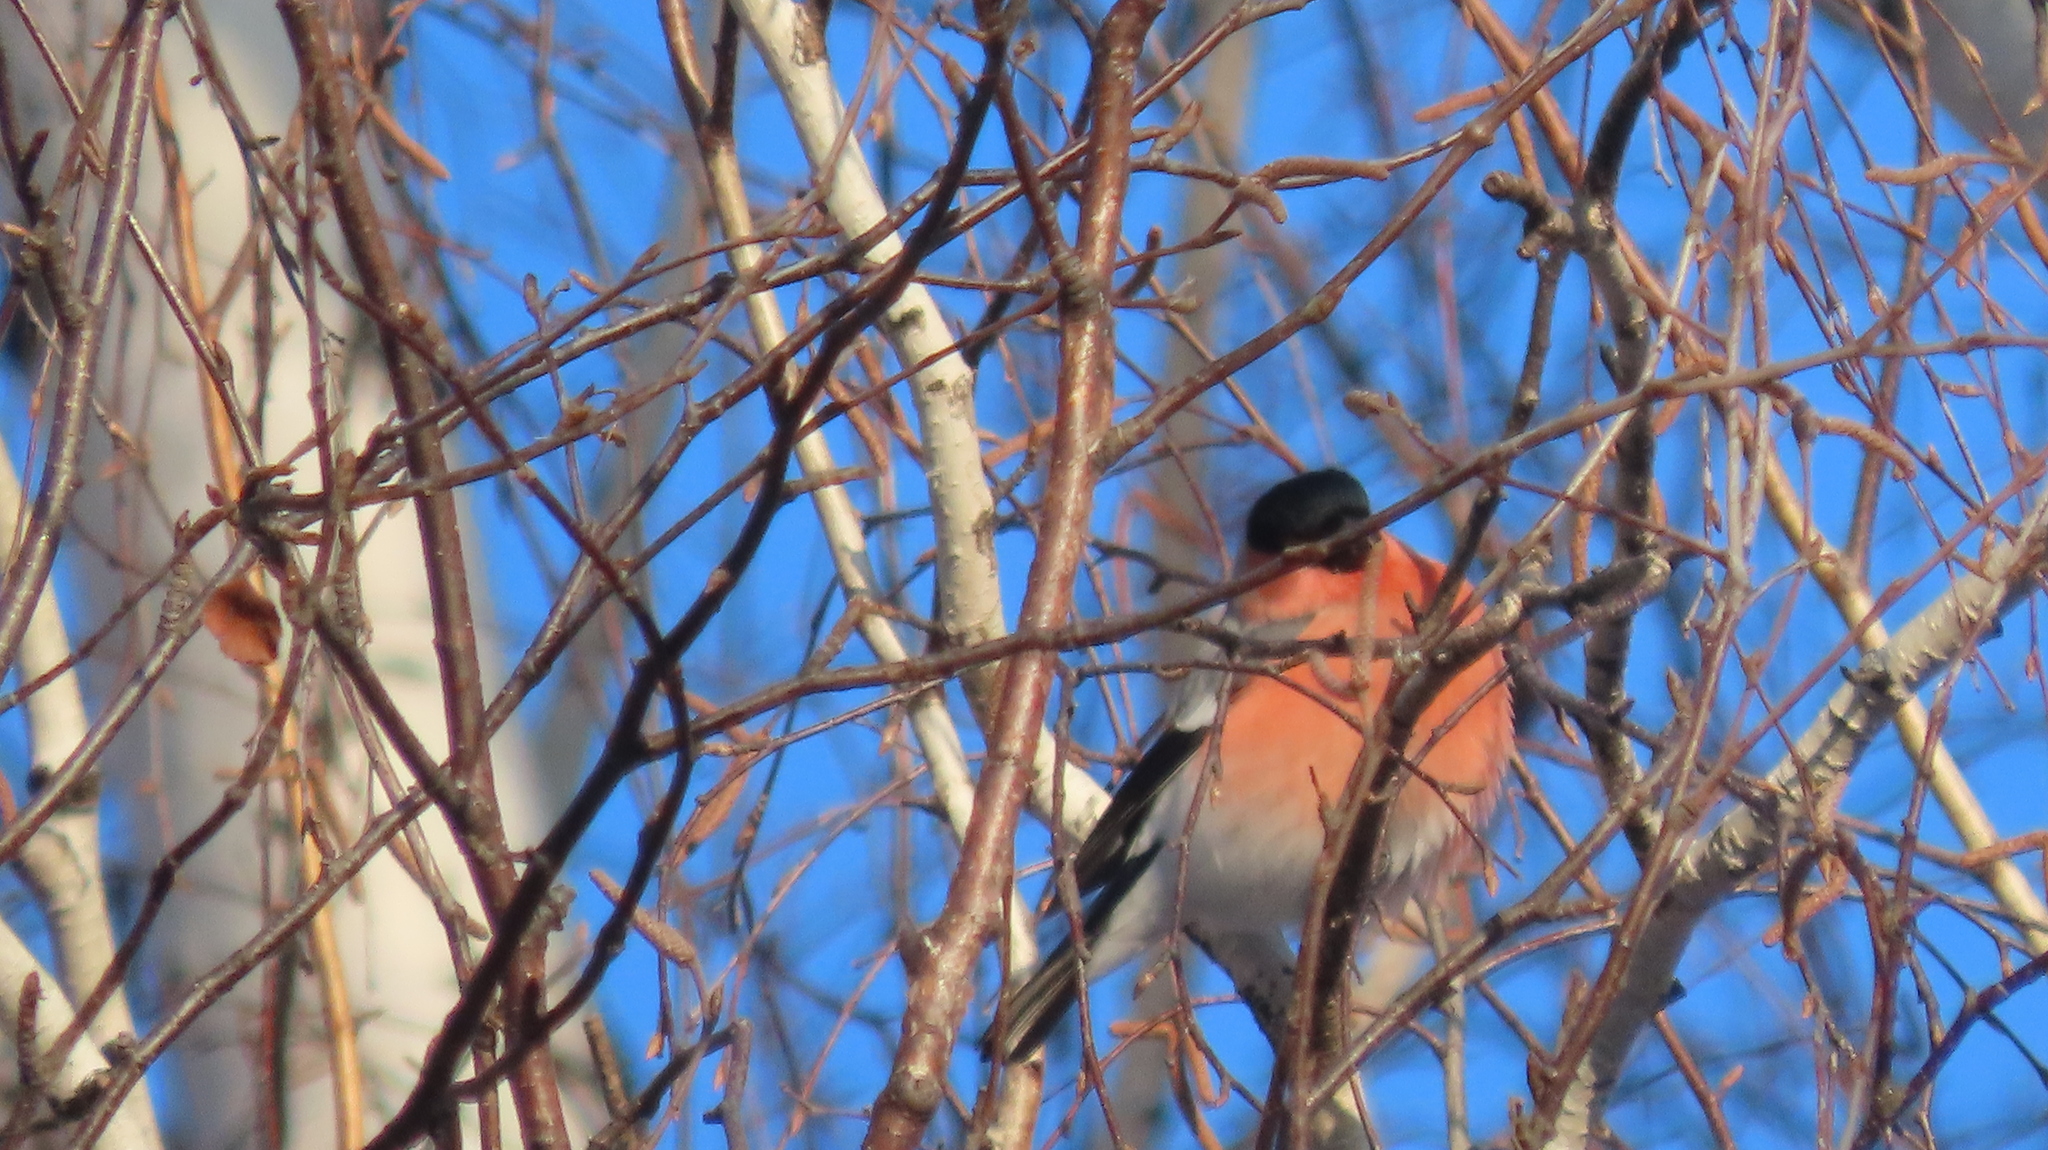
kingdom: Animalia
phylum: Chordata
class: Aves
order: Passeriformes
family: Fringillidae
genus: Pyrrhula
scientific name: Pyrrhula pyrrhula
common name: Eurasian bullfinch
